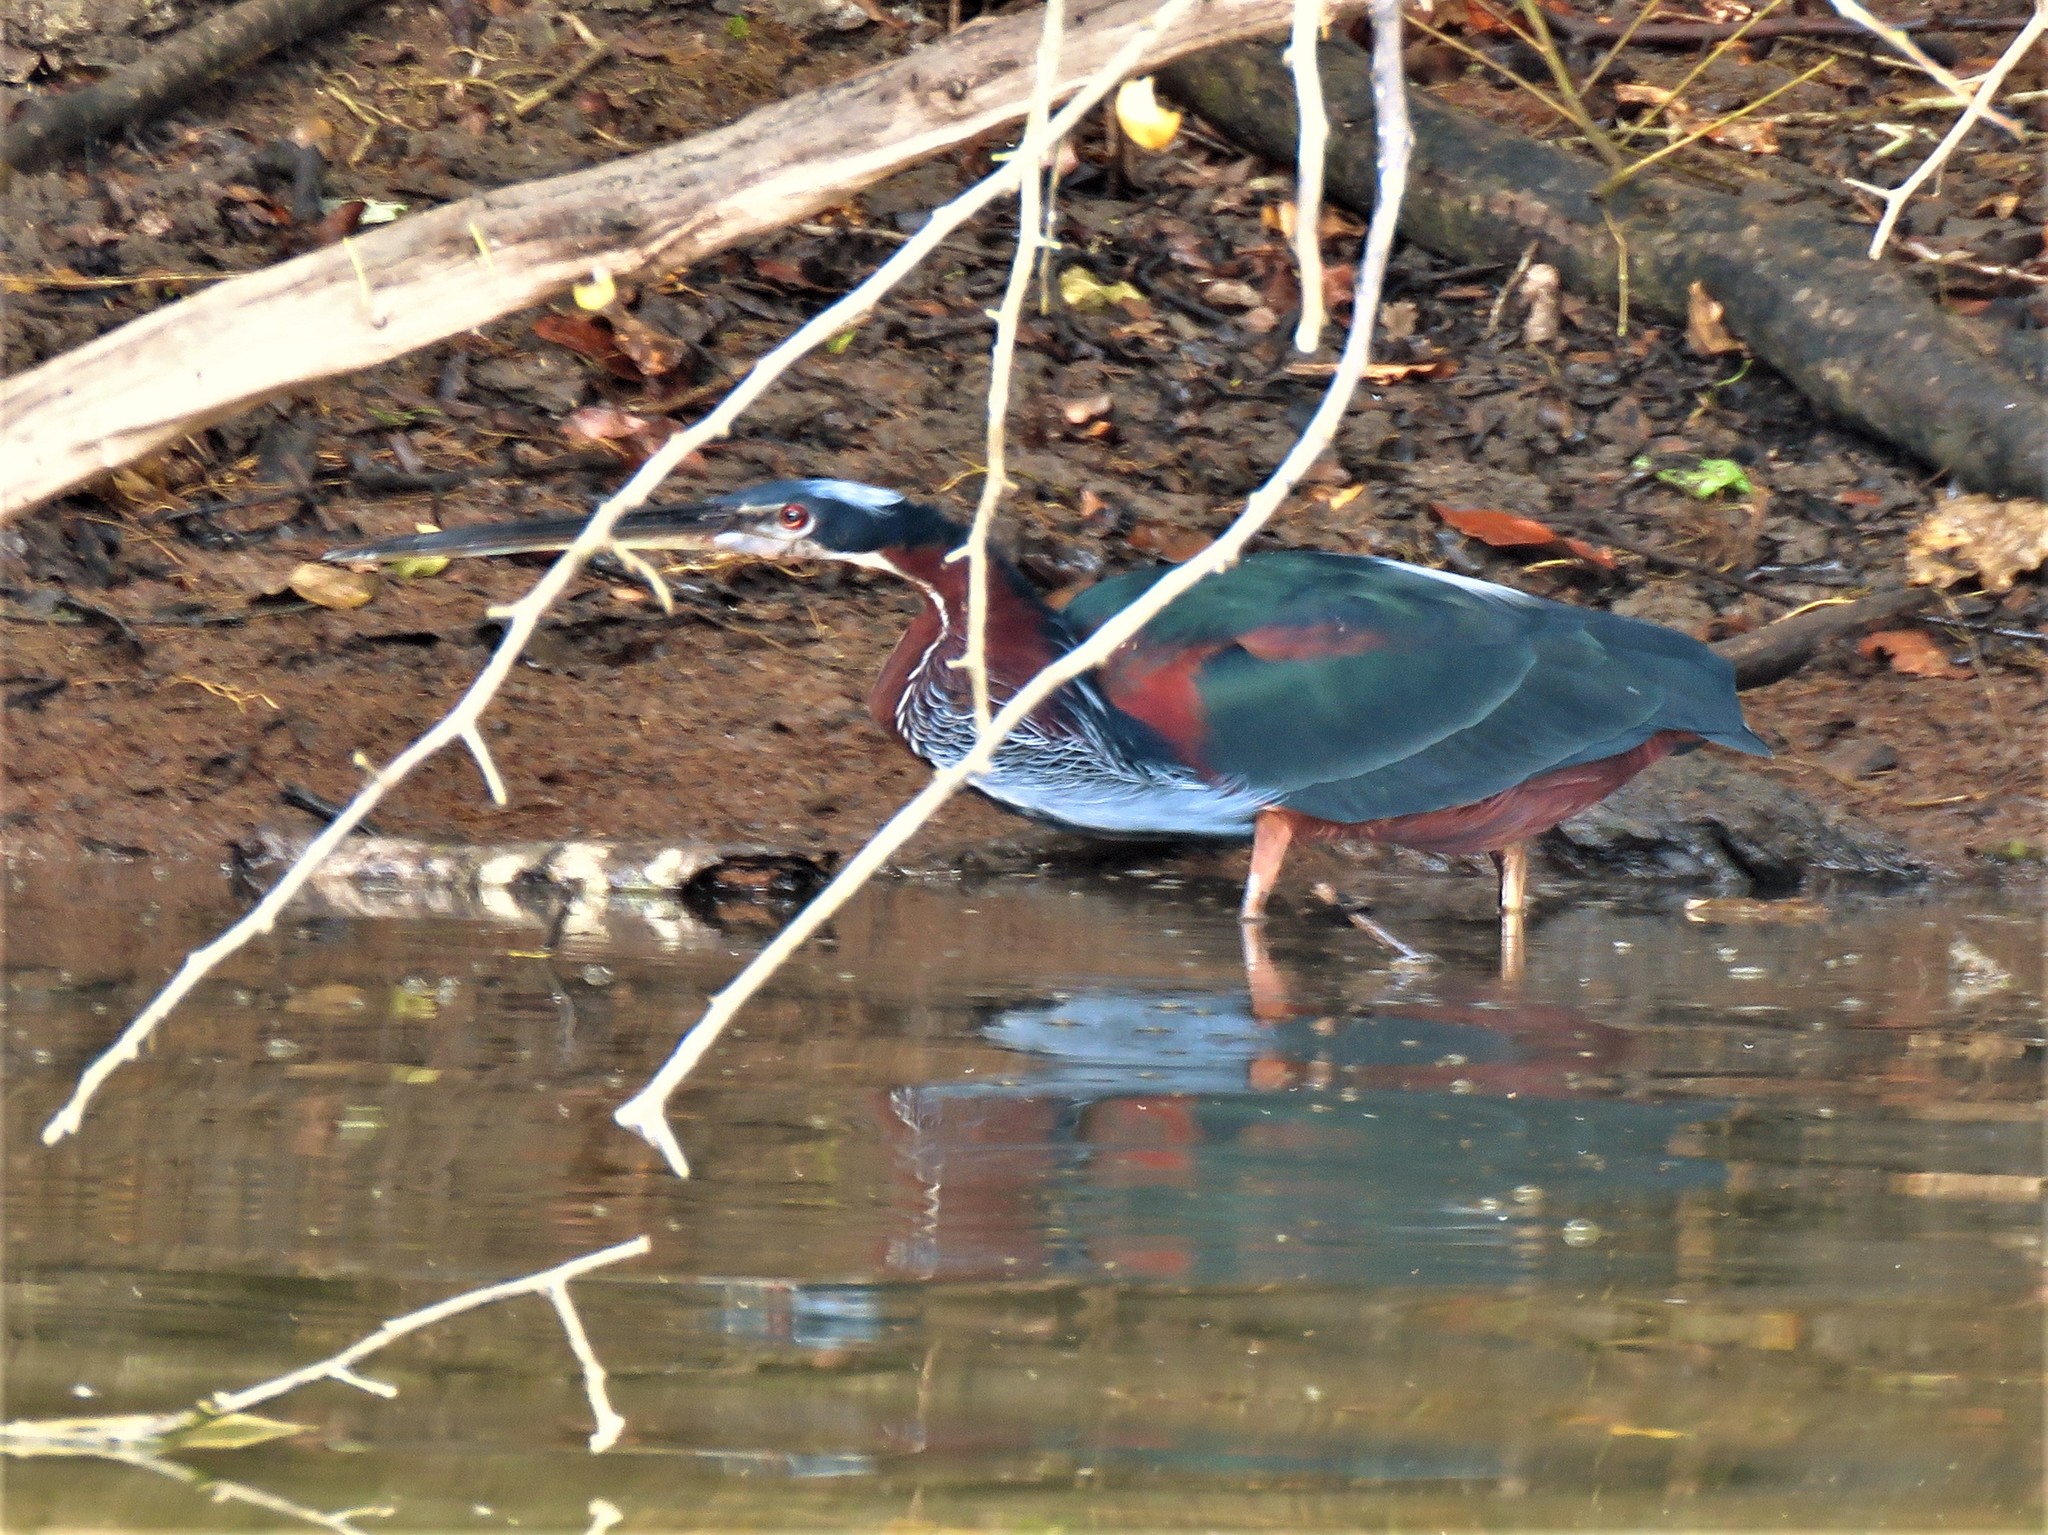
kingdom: Animalia
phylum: Chordata
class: Aves
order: Pelecaniformes
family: Ardeidae
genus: Agamia
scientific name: Agamia agami
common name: Agami heron
